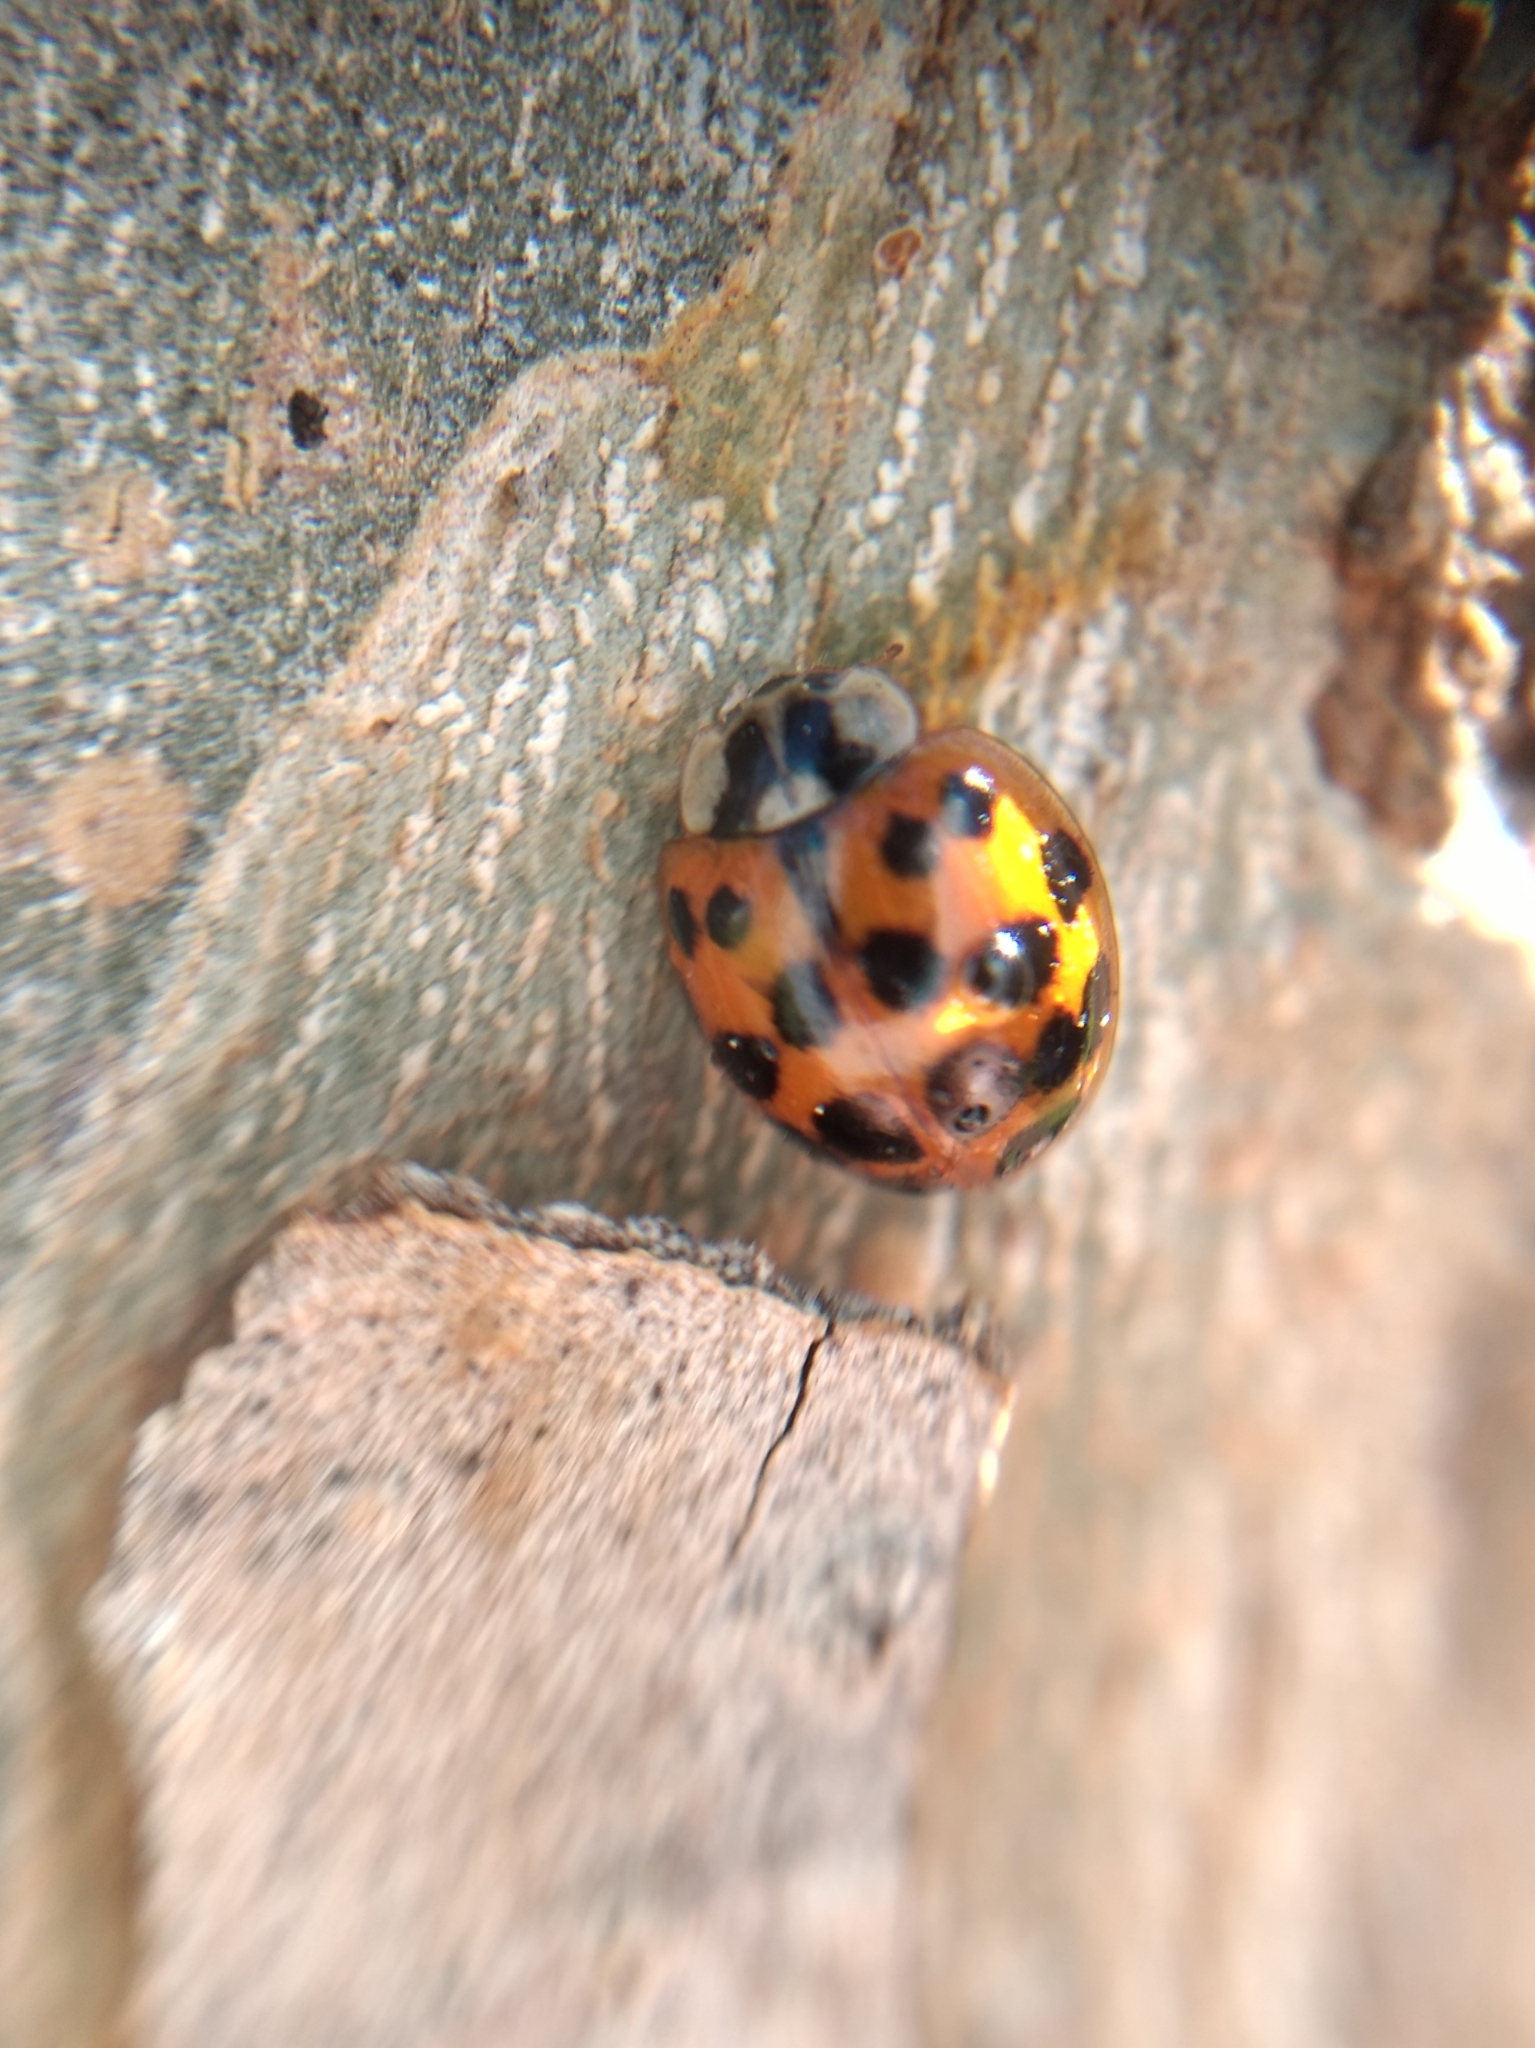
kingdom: Animalia
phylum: Arthropoda
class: Insecta
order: Coleoptera
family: Coccinellidae
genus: Harmonia
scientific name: Harmonia axyridis
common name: Harlequin ladybird
